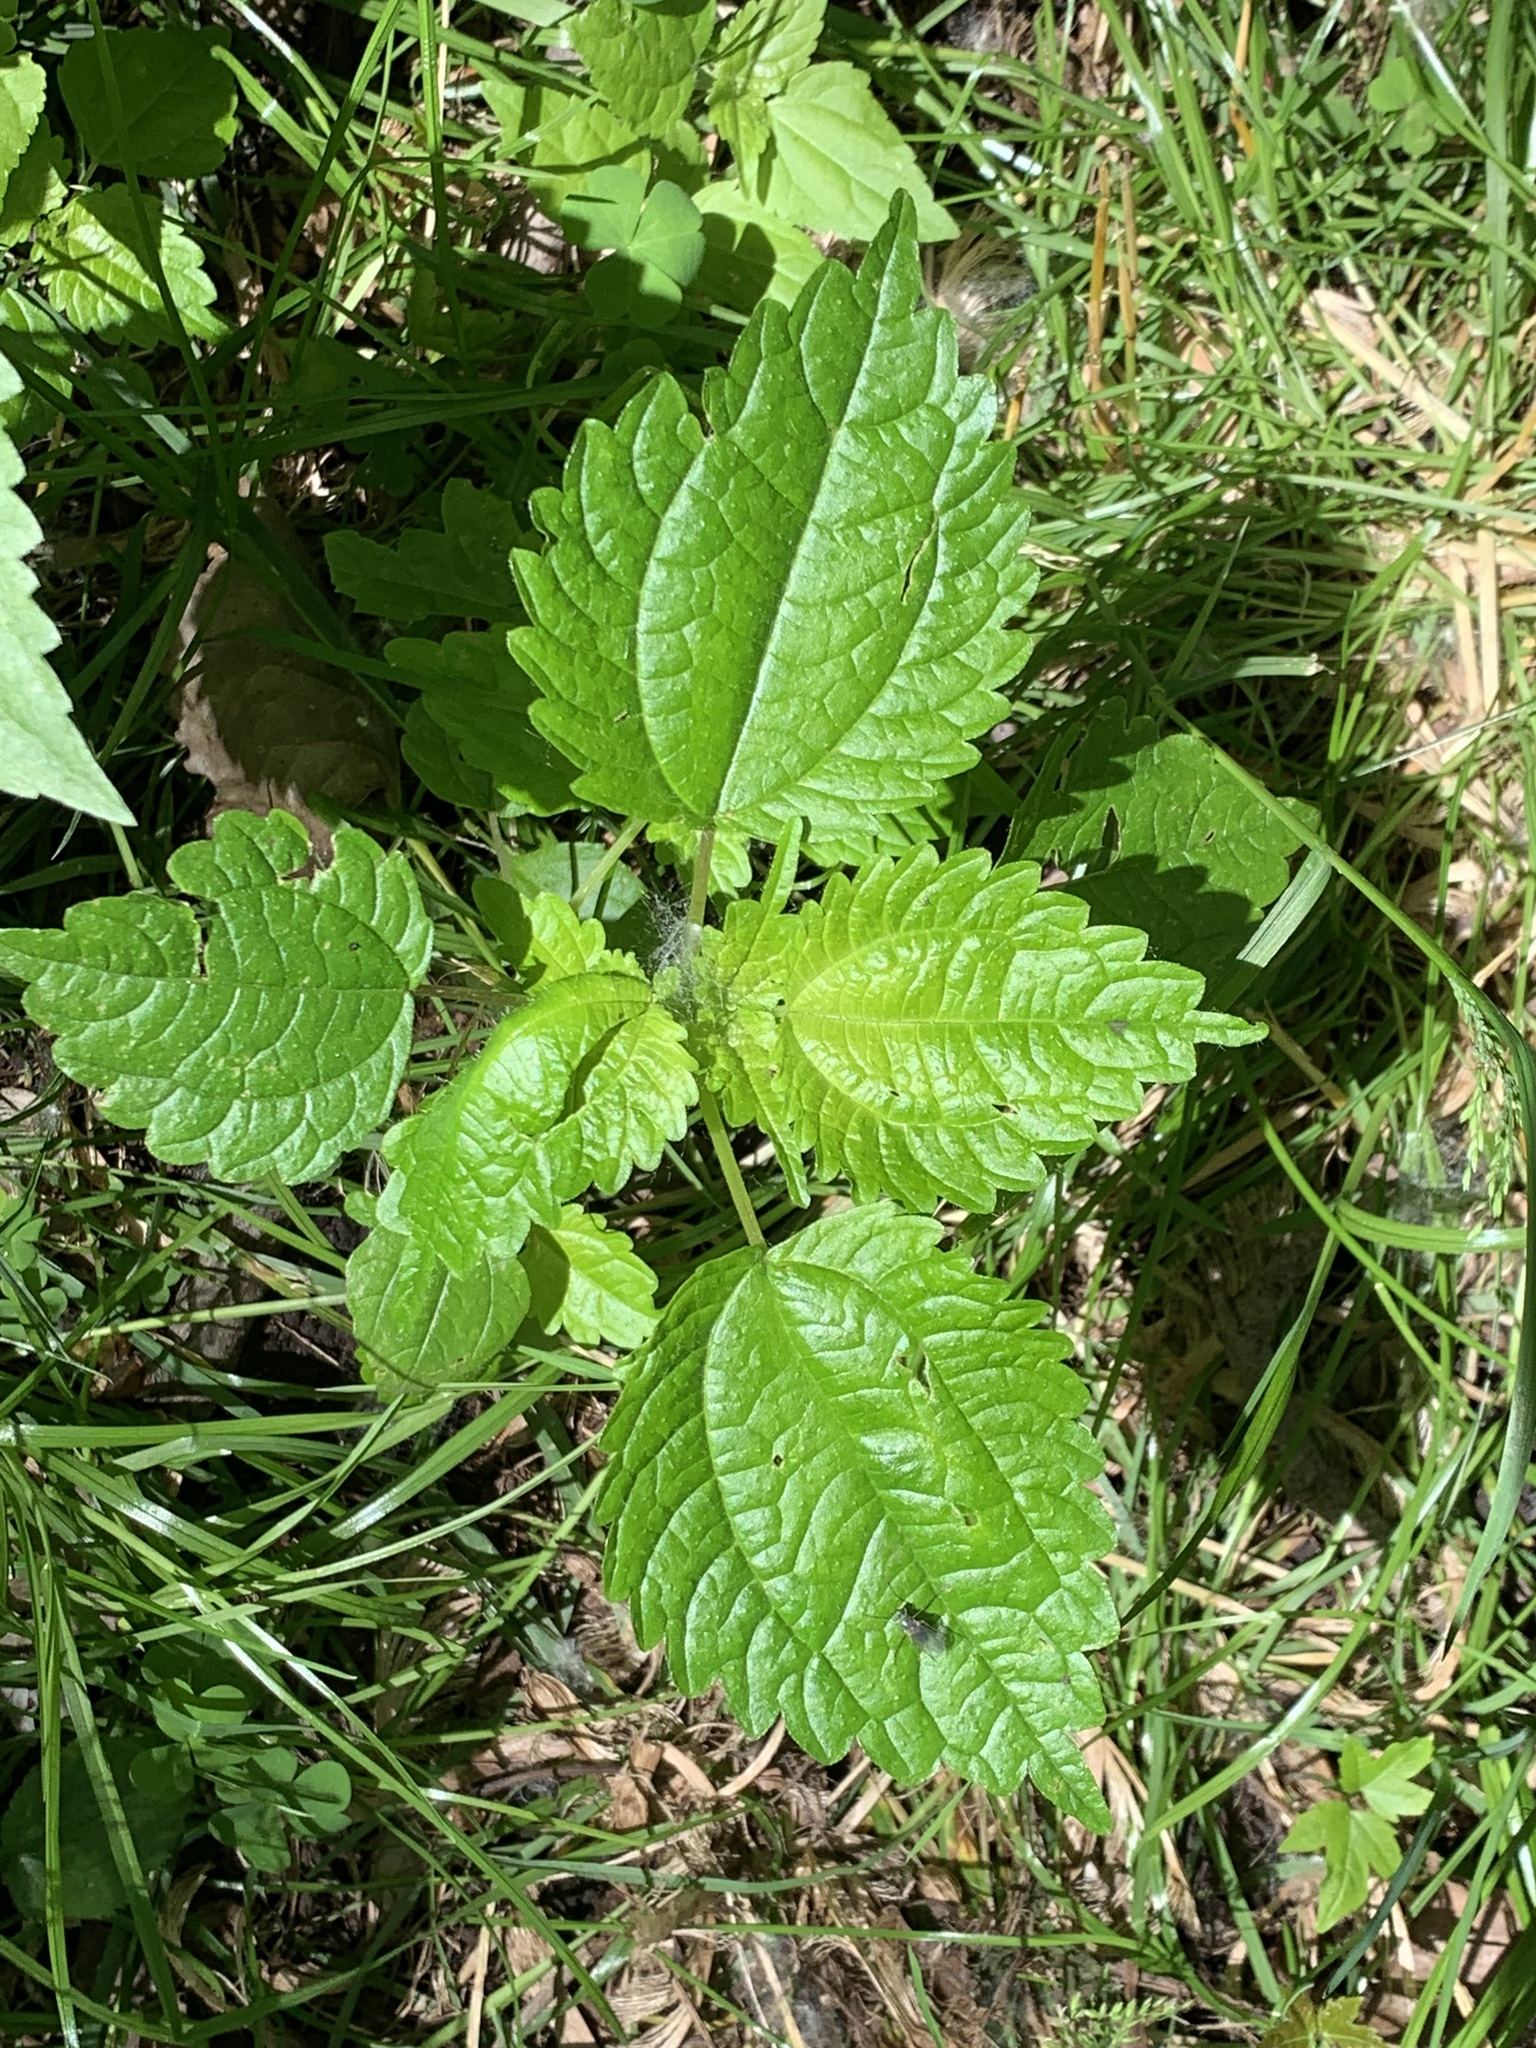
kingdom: Plantae
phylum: Tracheophyta
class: Magnoliopsida
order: Rosales
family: Urticaceae
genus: Pilea
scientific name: Pilea pumila
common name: Clearweed
